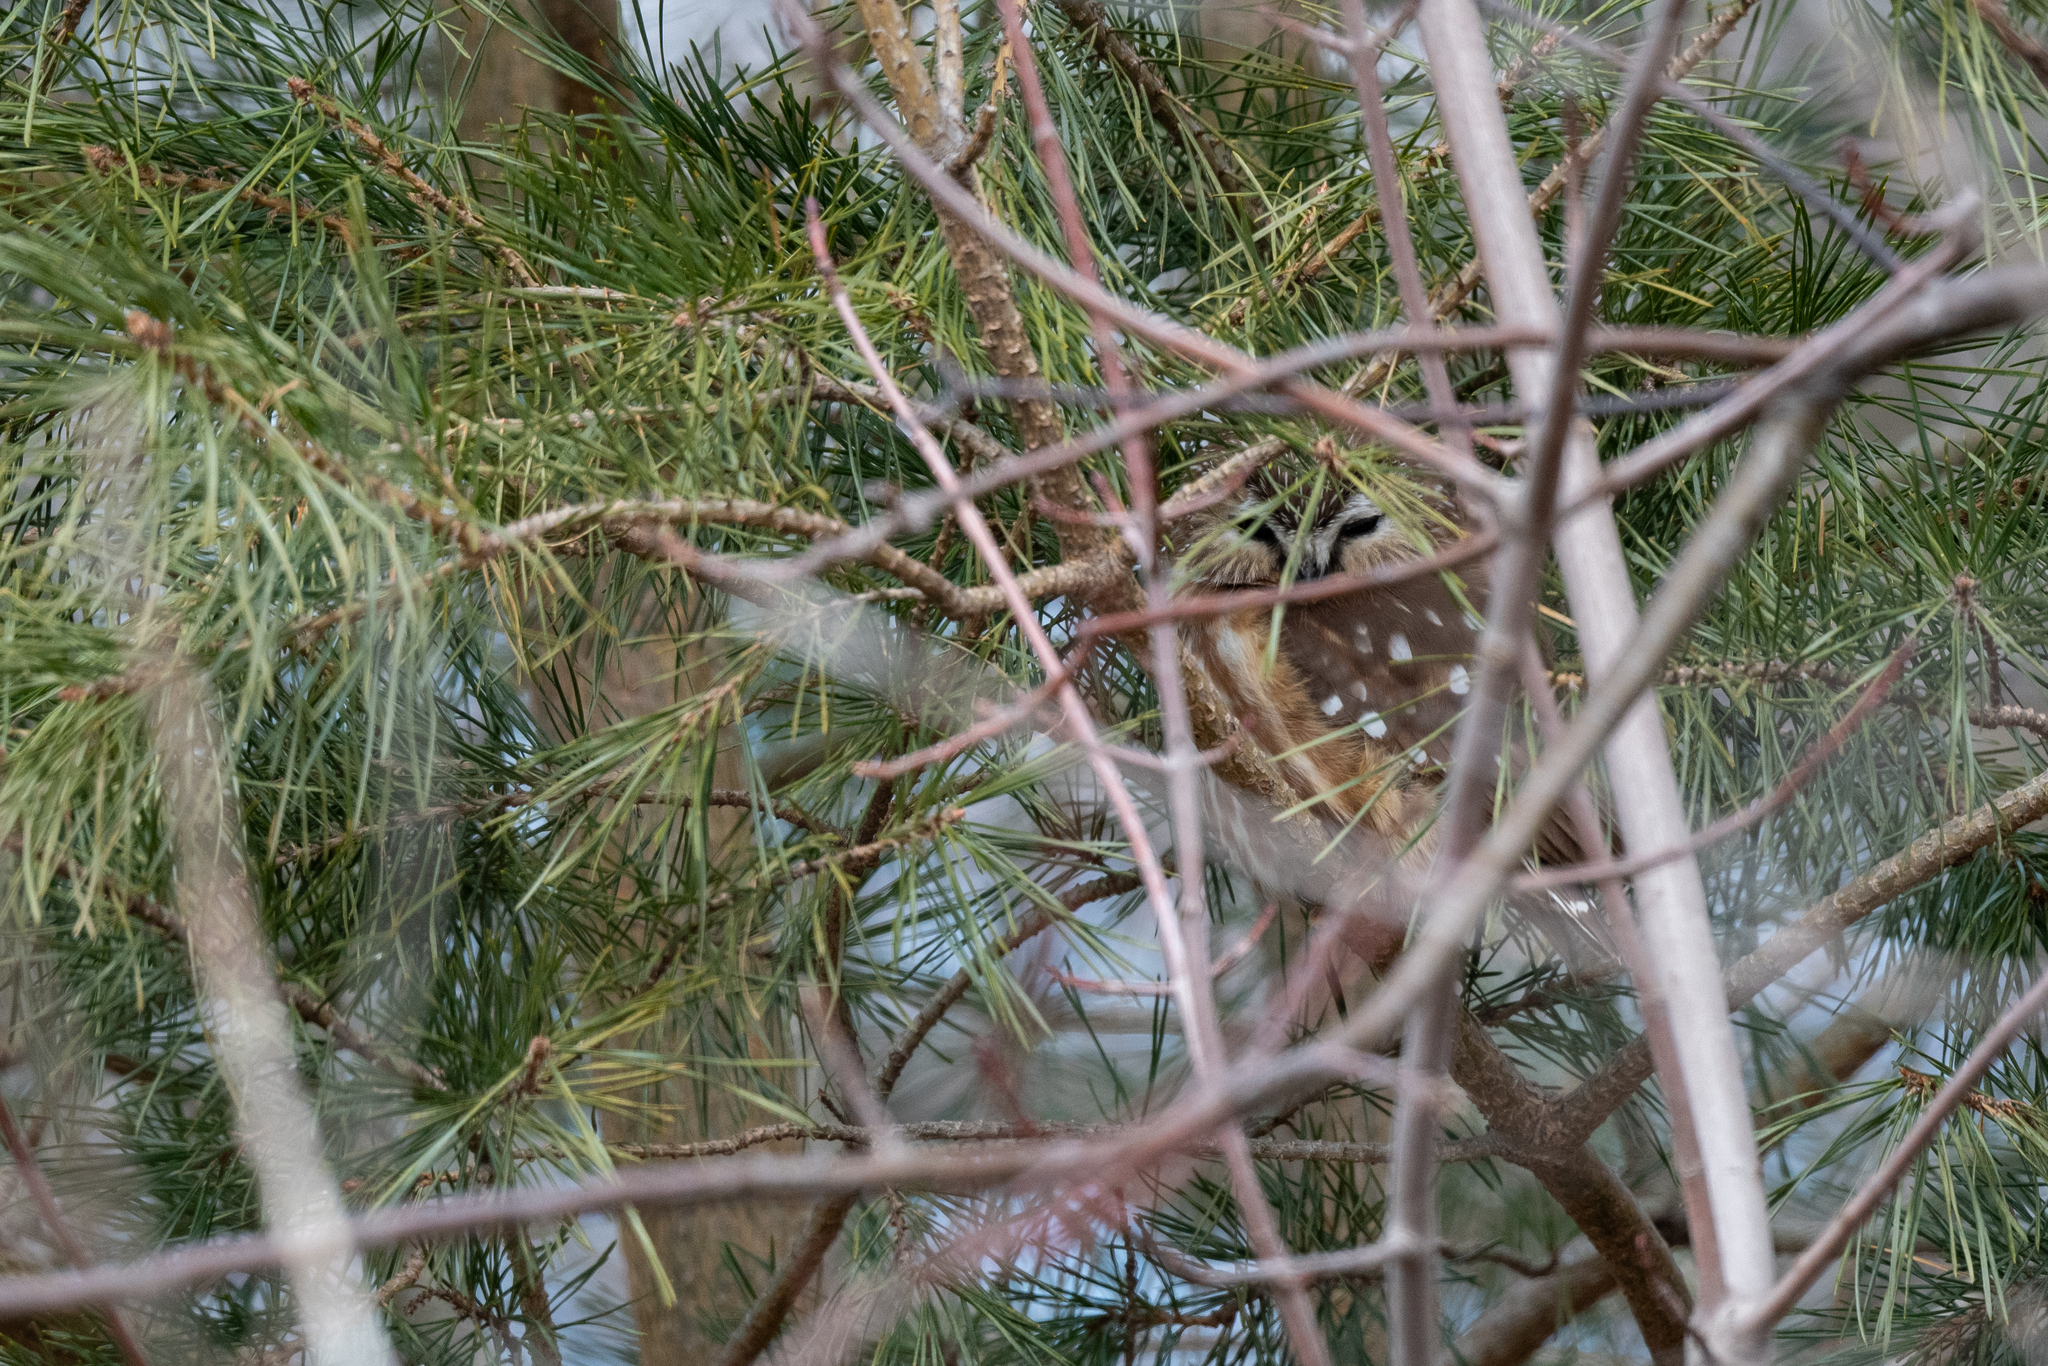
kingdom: Animalia
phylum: Chordata
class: Aves
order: Strigiformes
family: Strigidae
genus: Aegolius
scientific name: Aegolius acadicus
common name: Northern saw-whet owl
